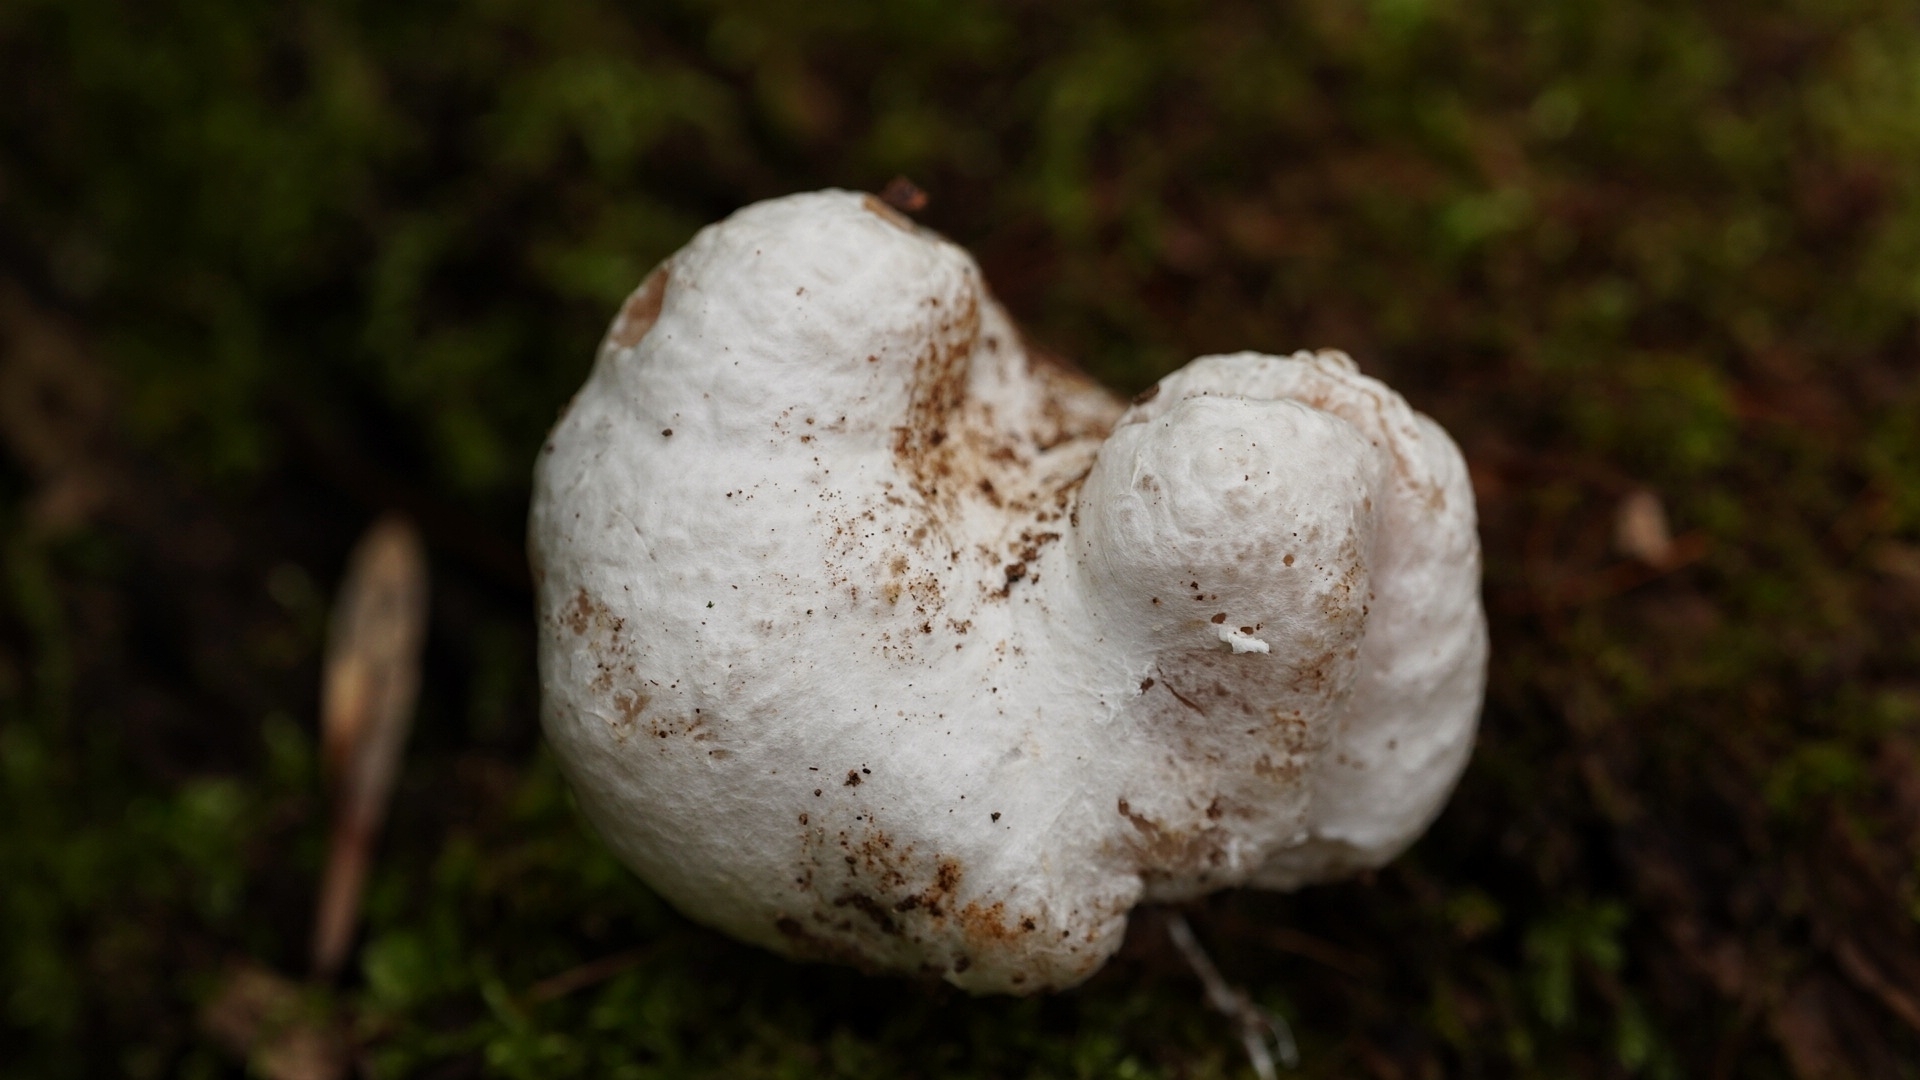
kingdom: Fungi
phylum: Basidiomycota
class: Agaricomycetes
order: Agaricales
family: Entolomataceae
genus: Entoloma
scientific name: Entoloma abortivum
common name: Aborted entoloma
